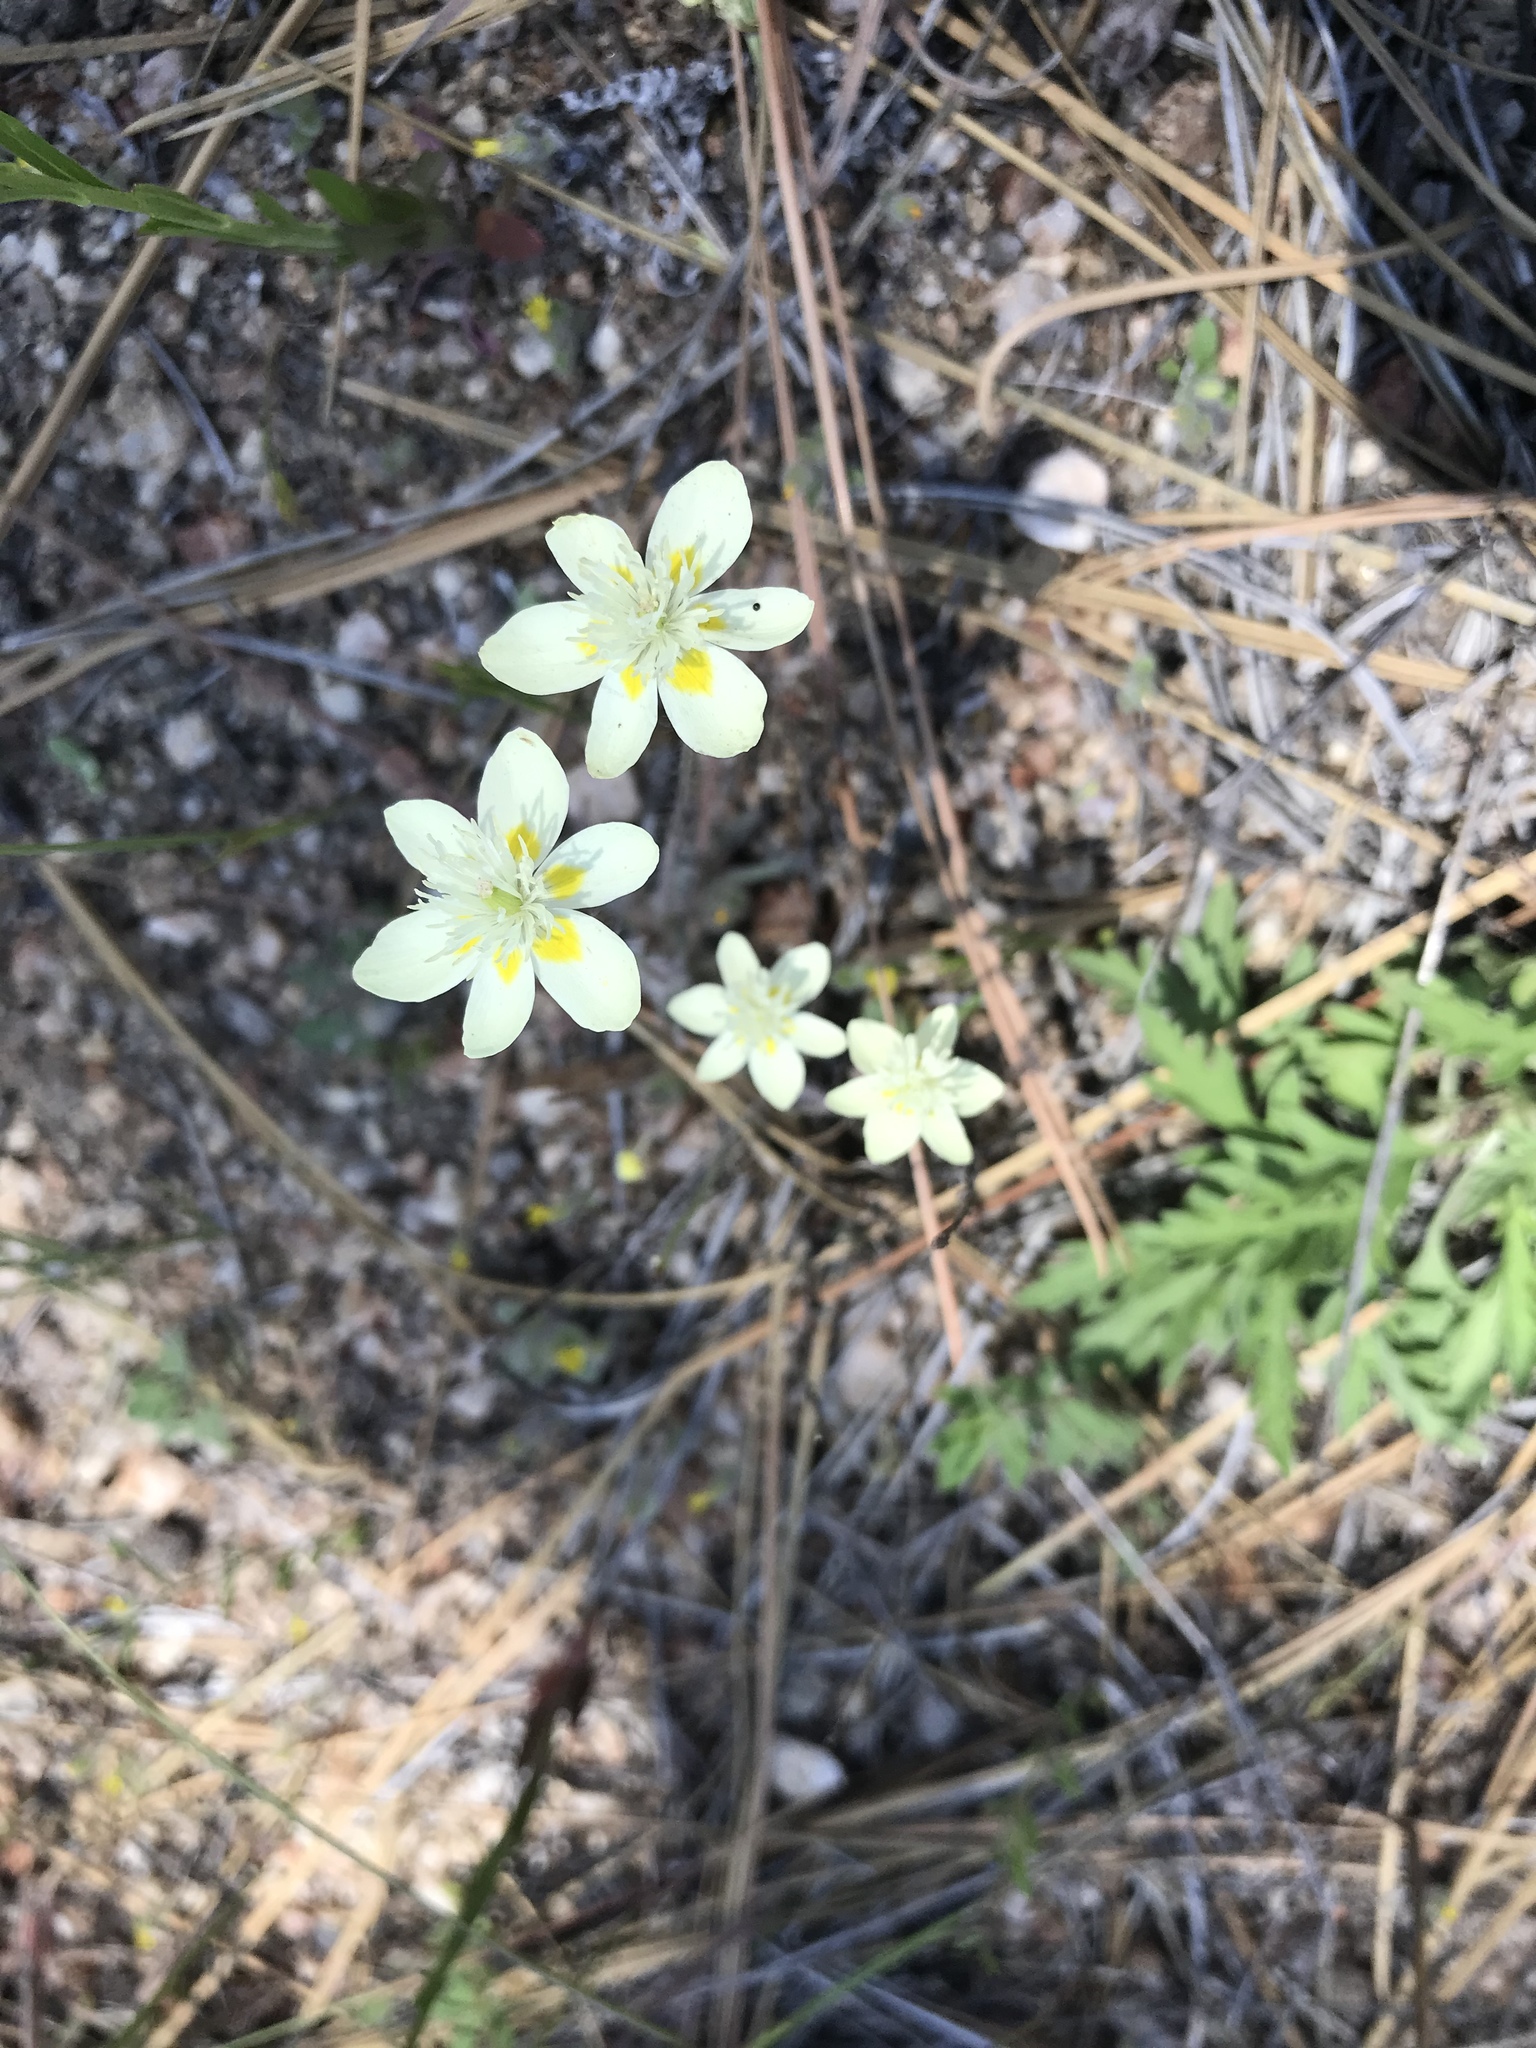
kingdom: Plantae
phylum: Tracheophyta
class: Magnoliopsida
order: Ranunculales
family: Papaveraceae
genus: Platystemon
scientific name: Platystemon californicus
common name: Cream-cups
